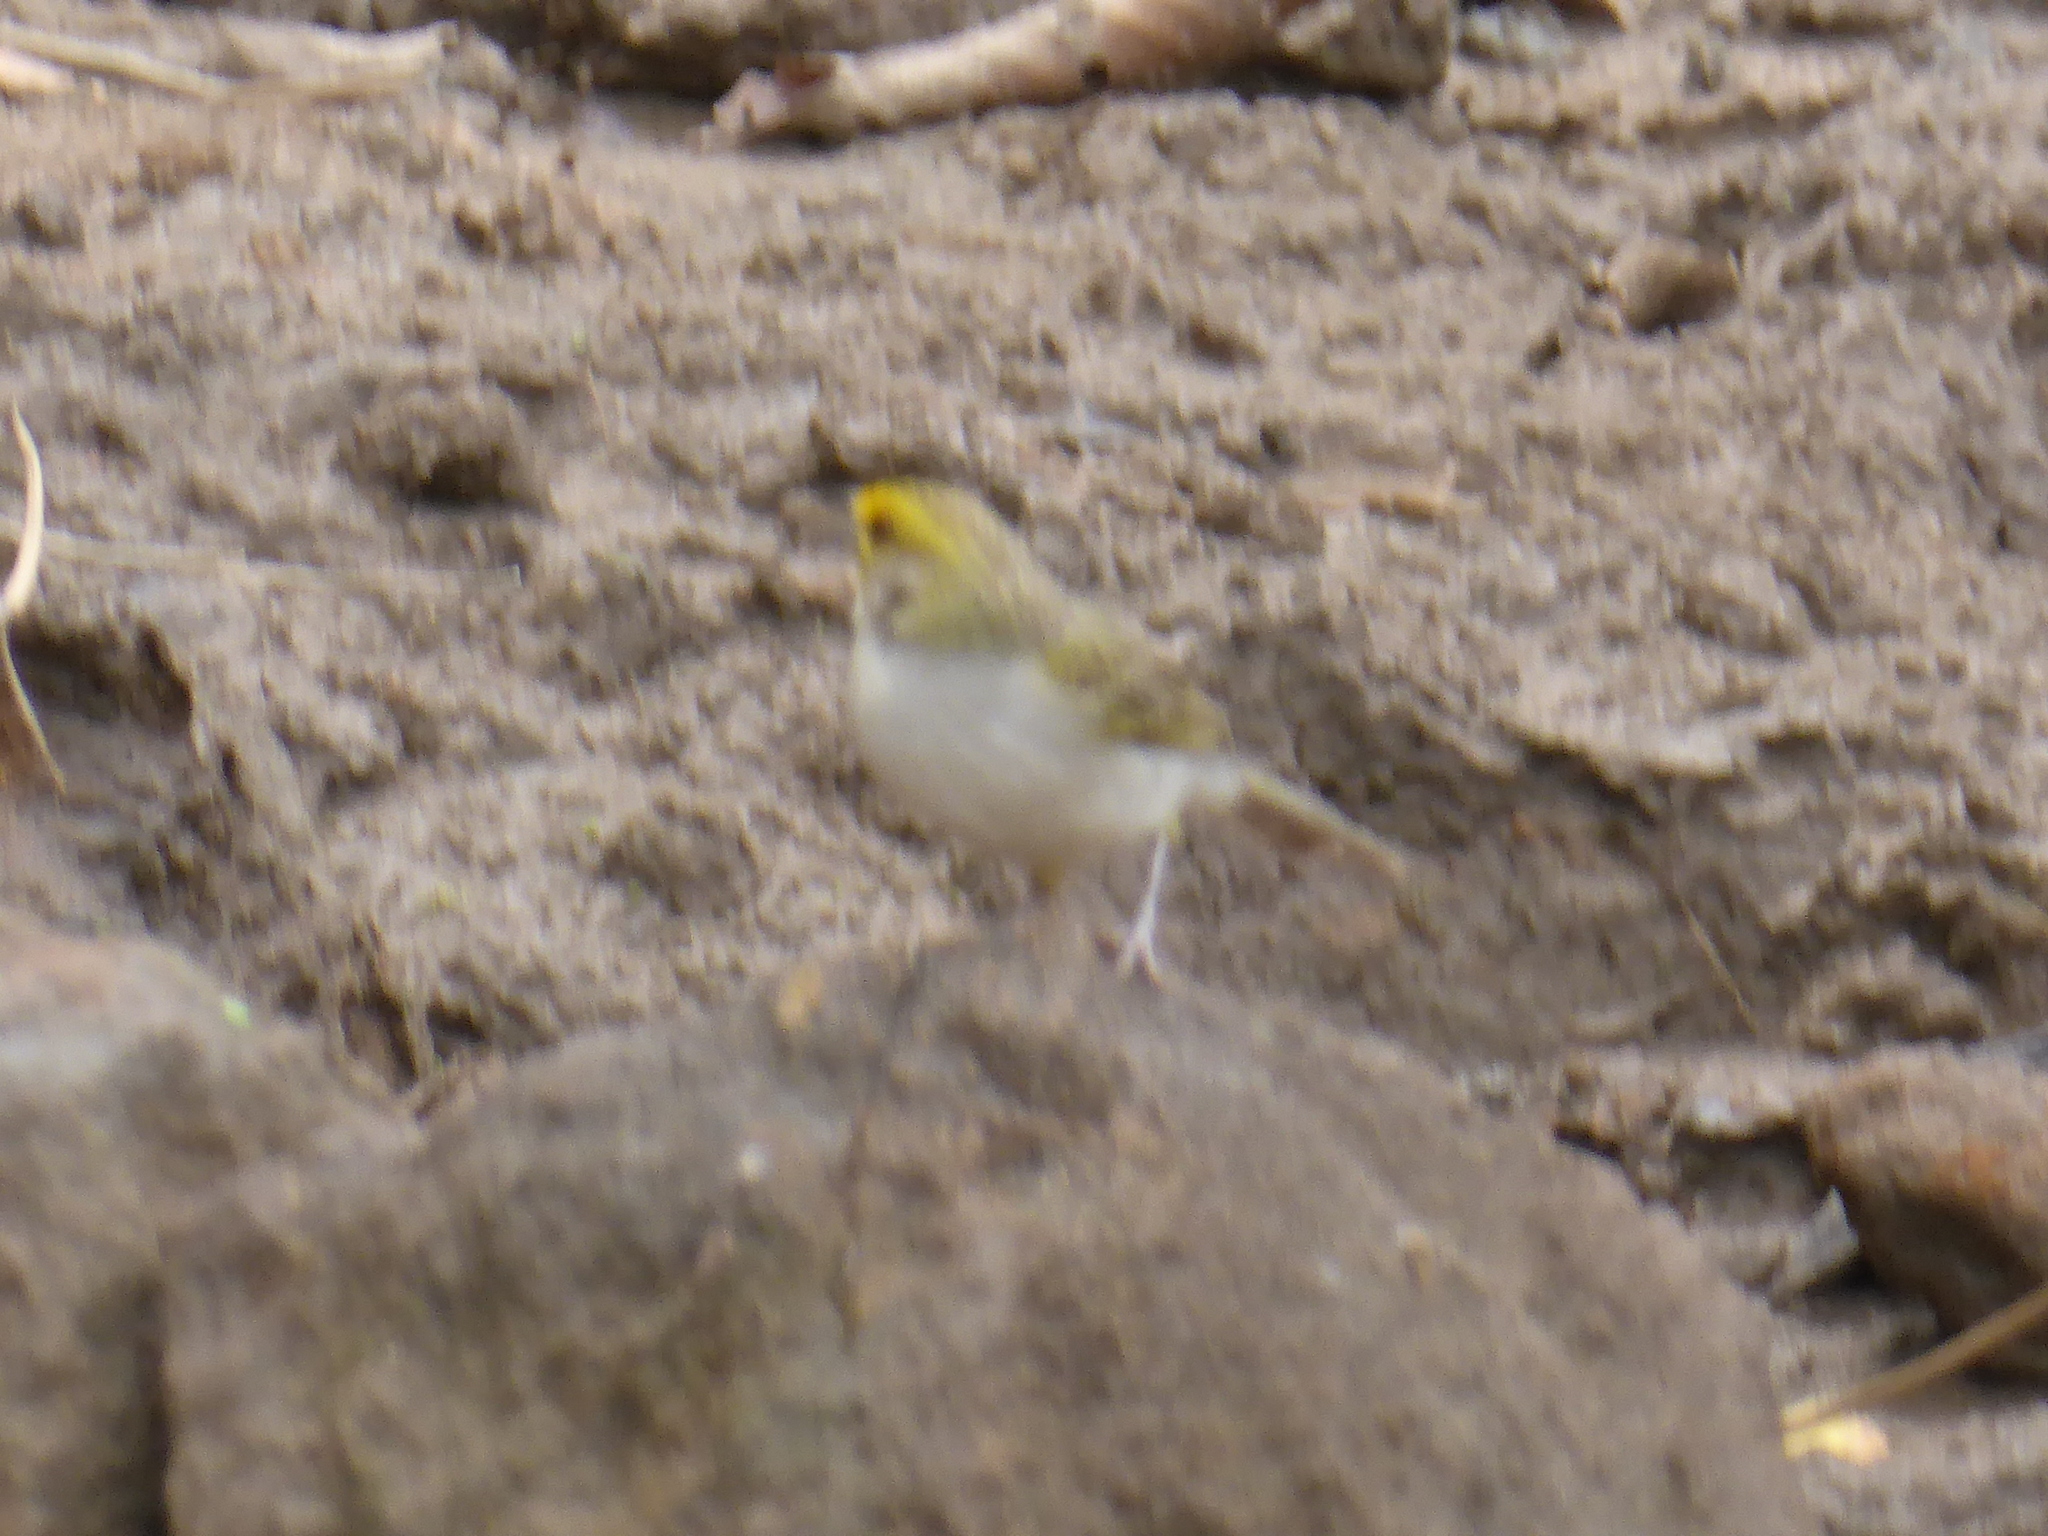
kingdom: Animalia
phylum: Chordata
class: Aves
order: Passeriformes
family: Passerellidae
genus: Ammodramus
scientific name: Ammodramus aurifrons
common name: Yellow-browed sparrow
